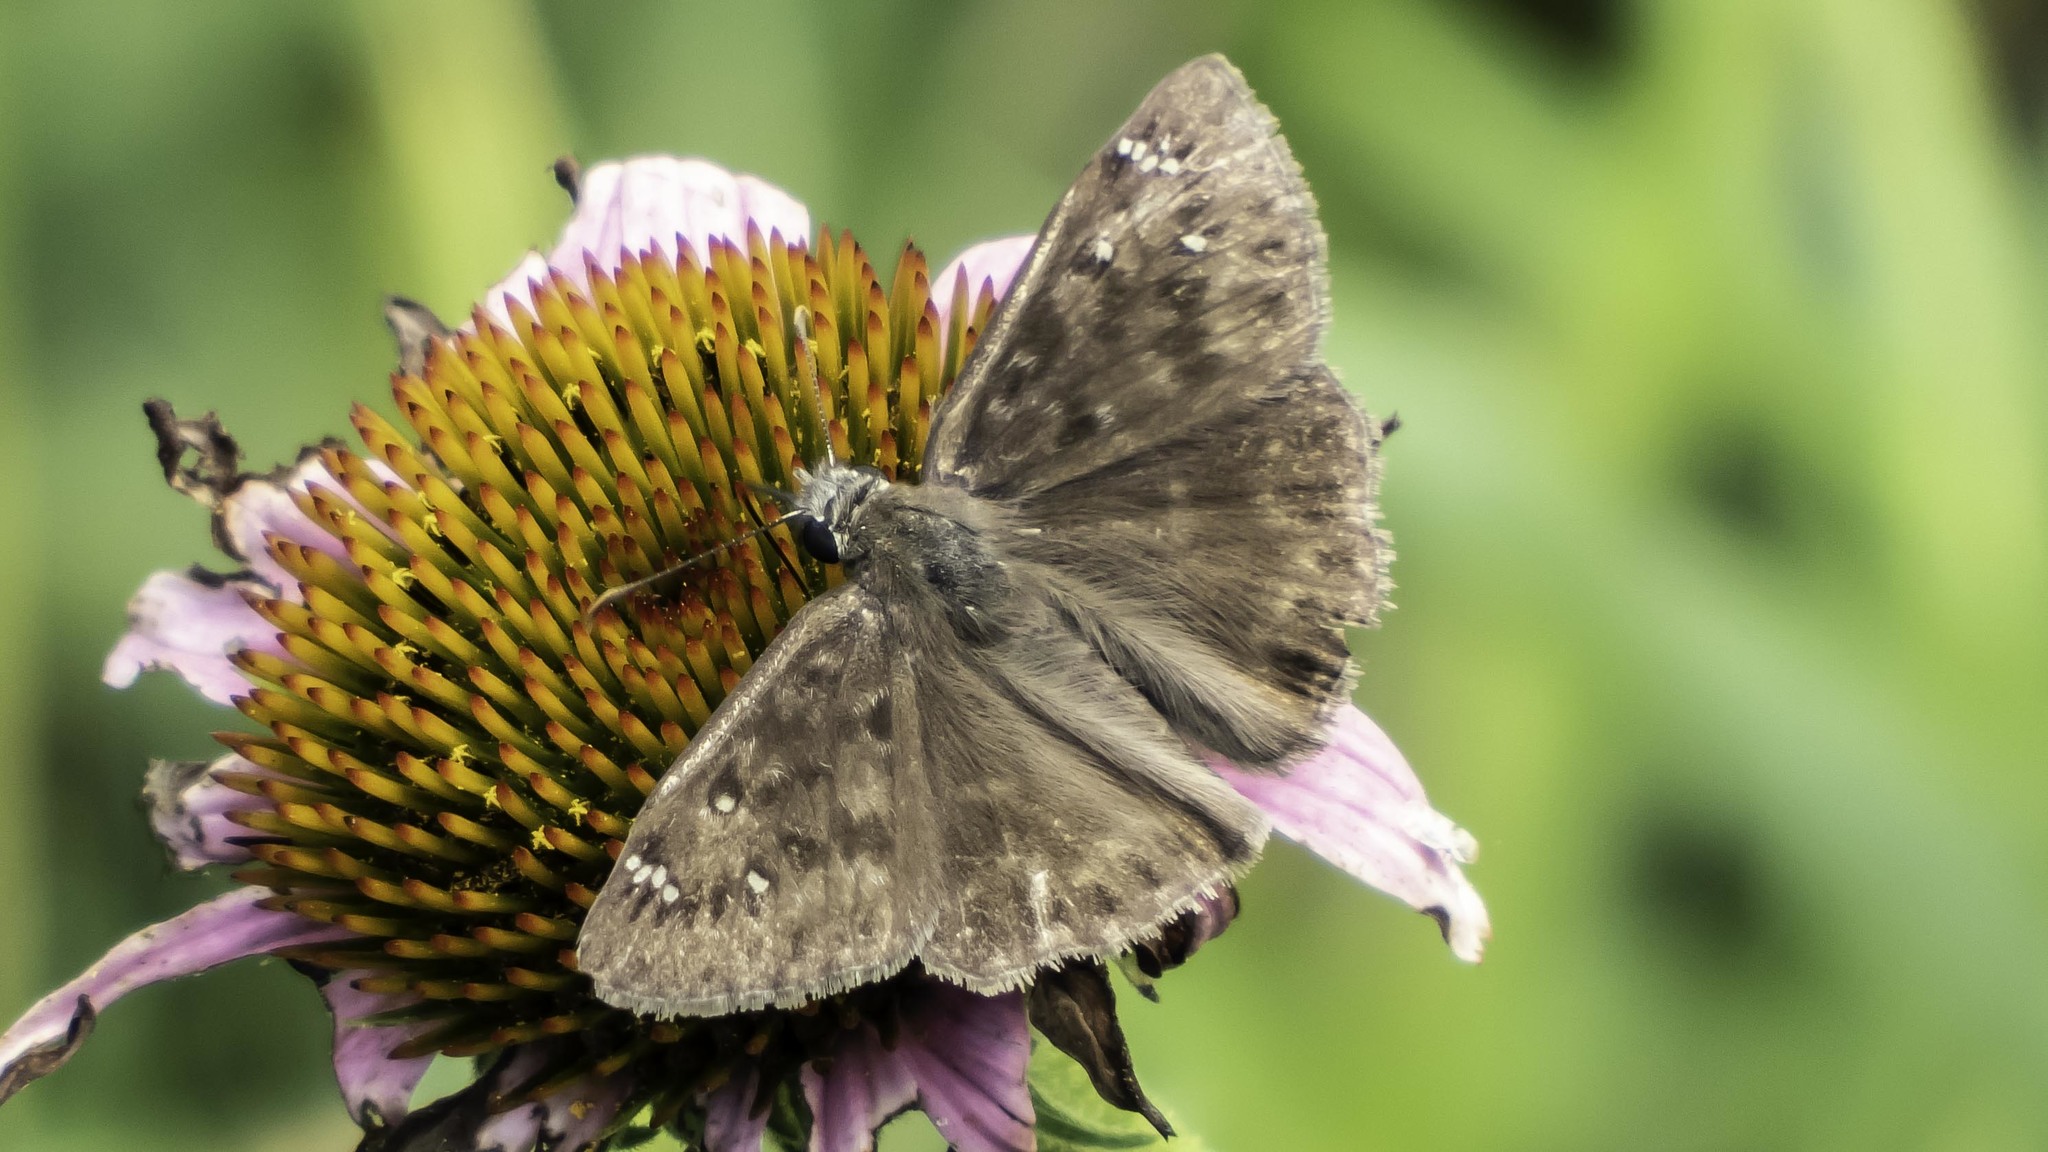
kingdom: Animalia
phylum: Arthropoda
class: Insecta
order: Lepidoptera
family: Hesperiidae
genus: Erynnis
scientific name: Erynnis horatius
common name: Horace's duskywing
